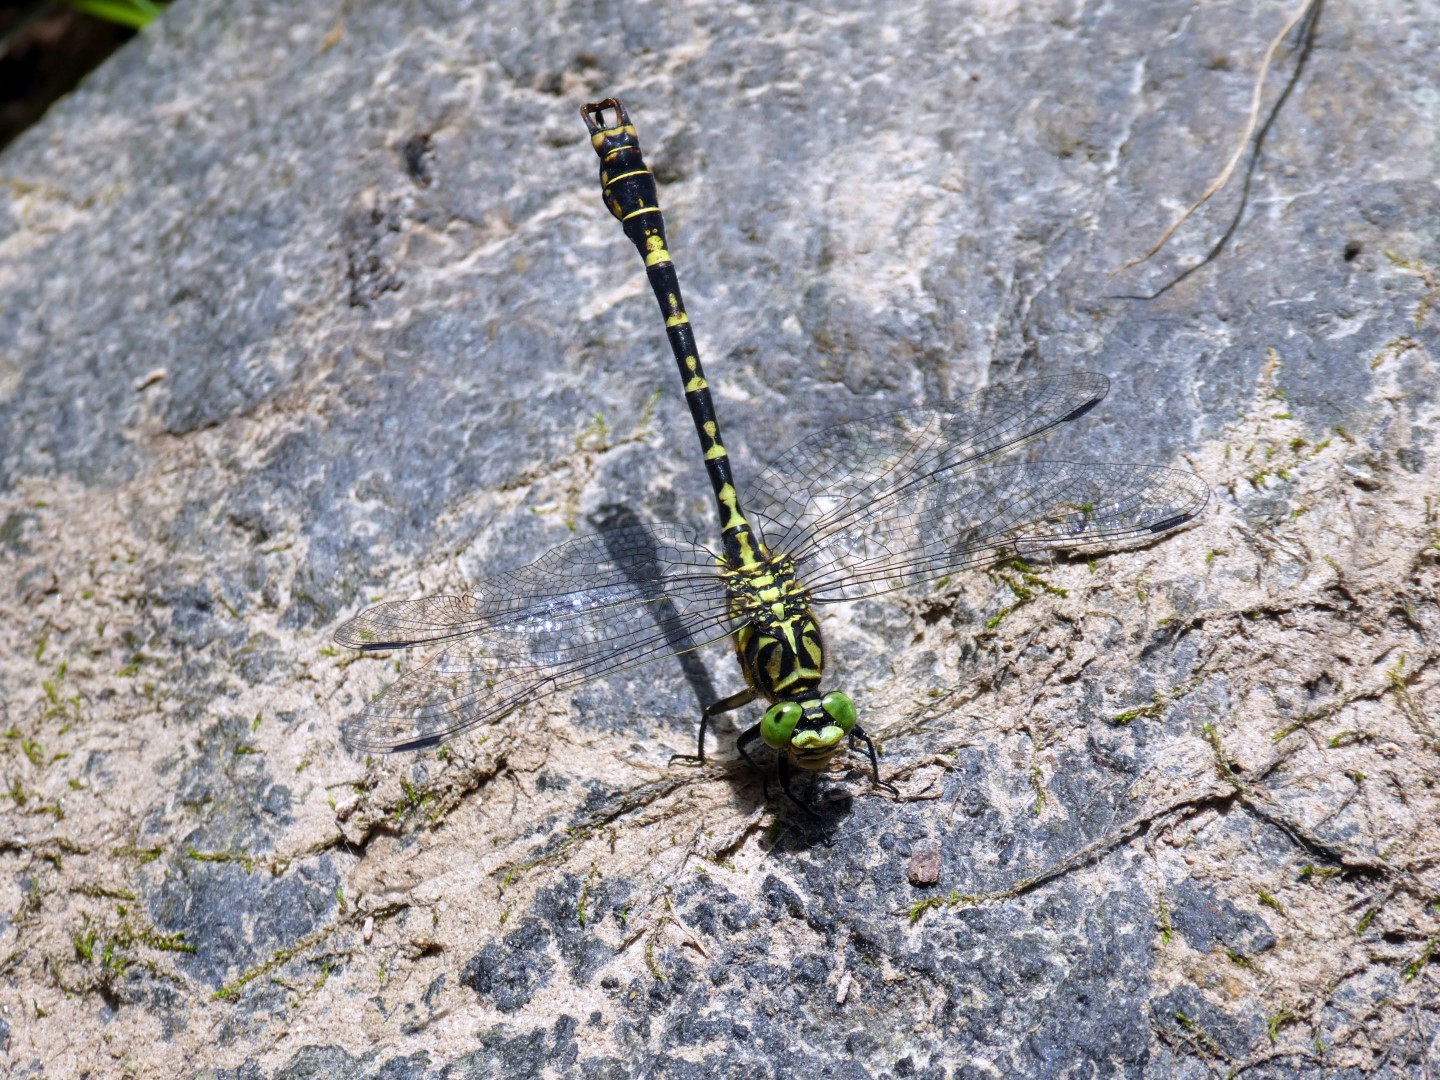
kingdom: Animalia
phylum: Arthropoda
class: Insecta
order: Odonata
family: Gomphidae
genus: Onychogomphus
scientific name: Onychogomphus forcipatus
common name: Small pincertail
